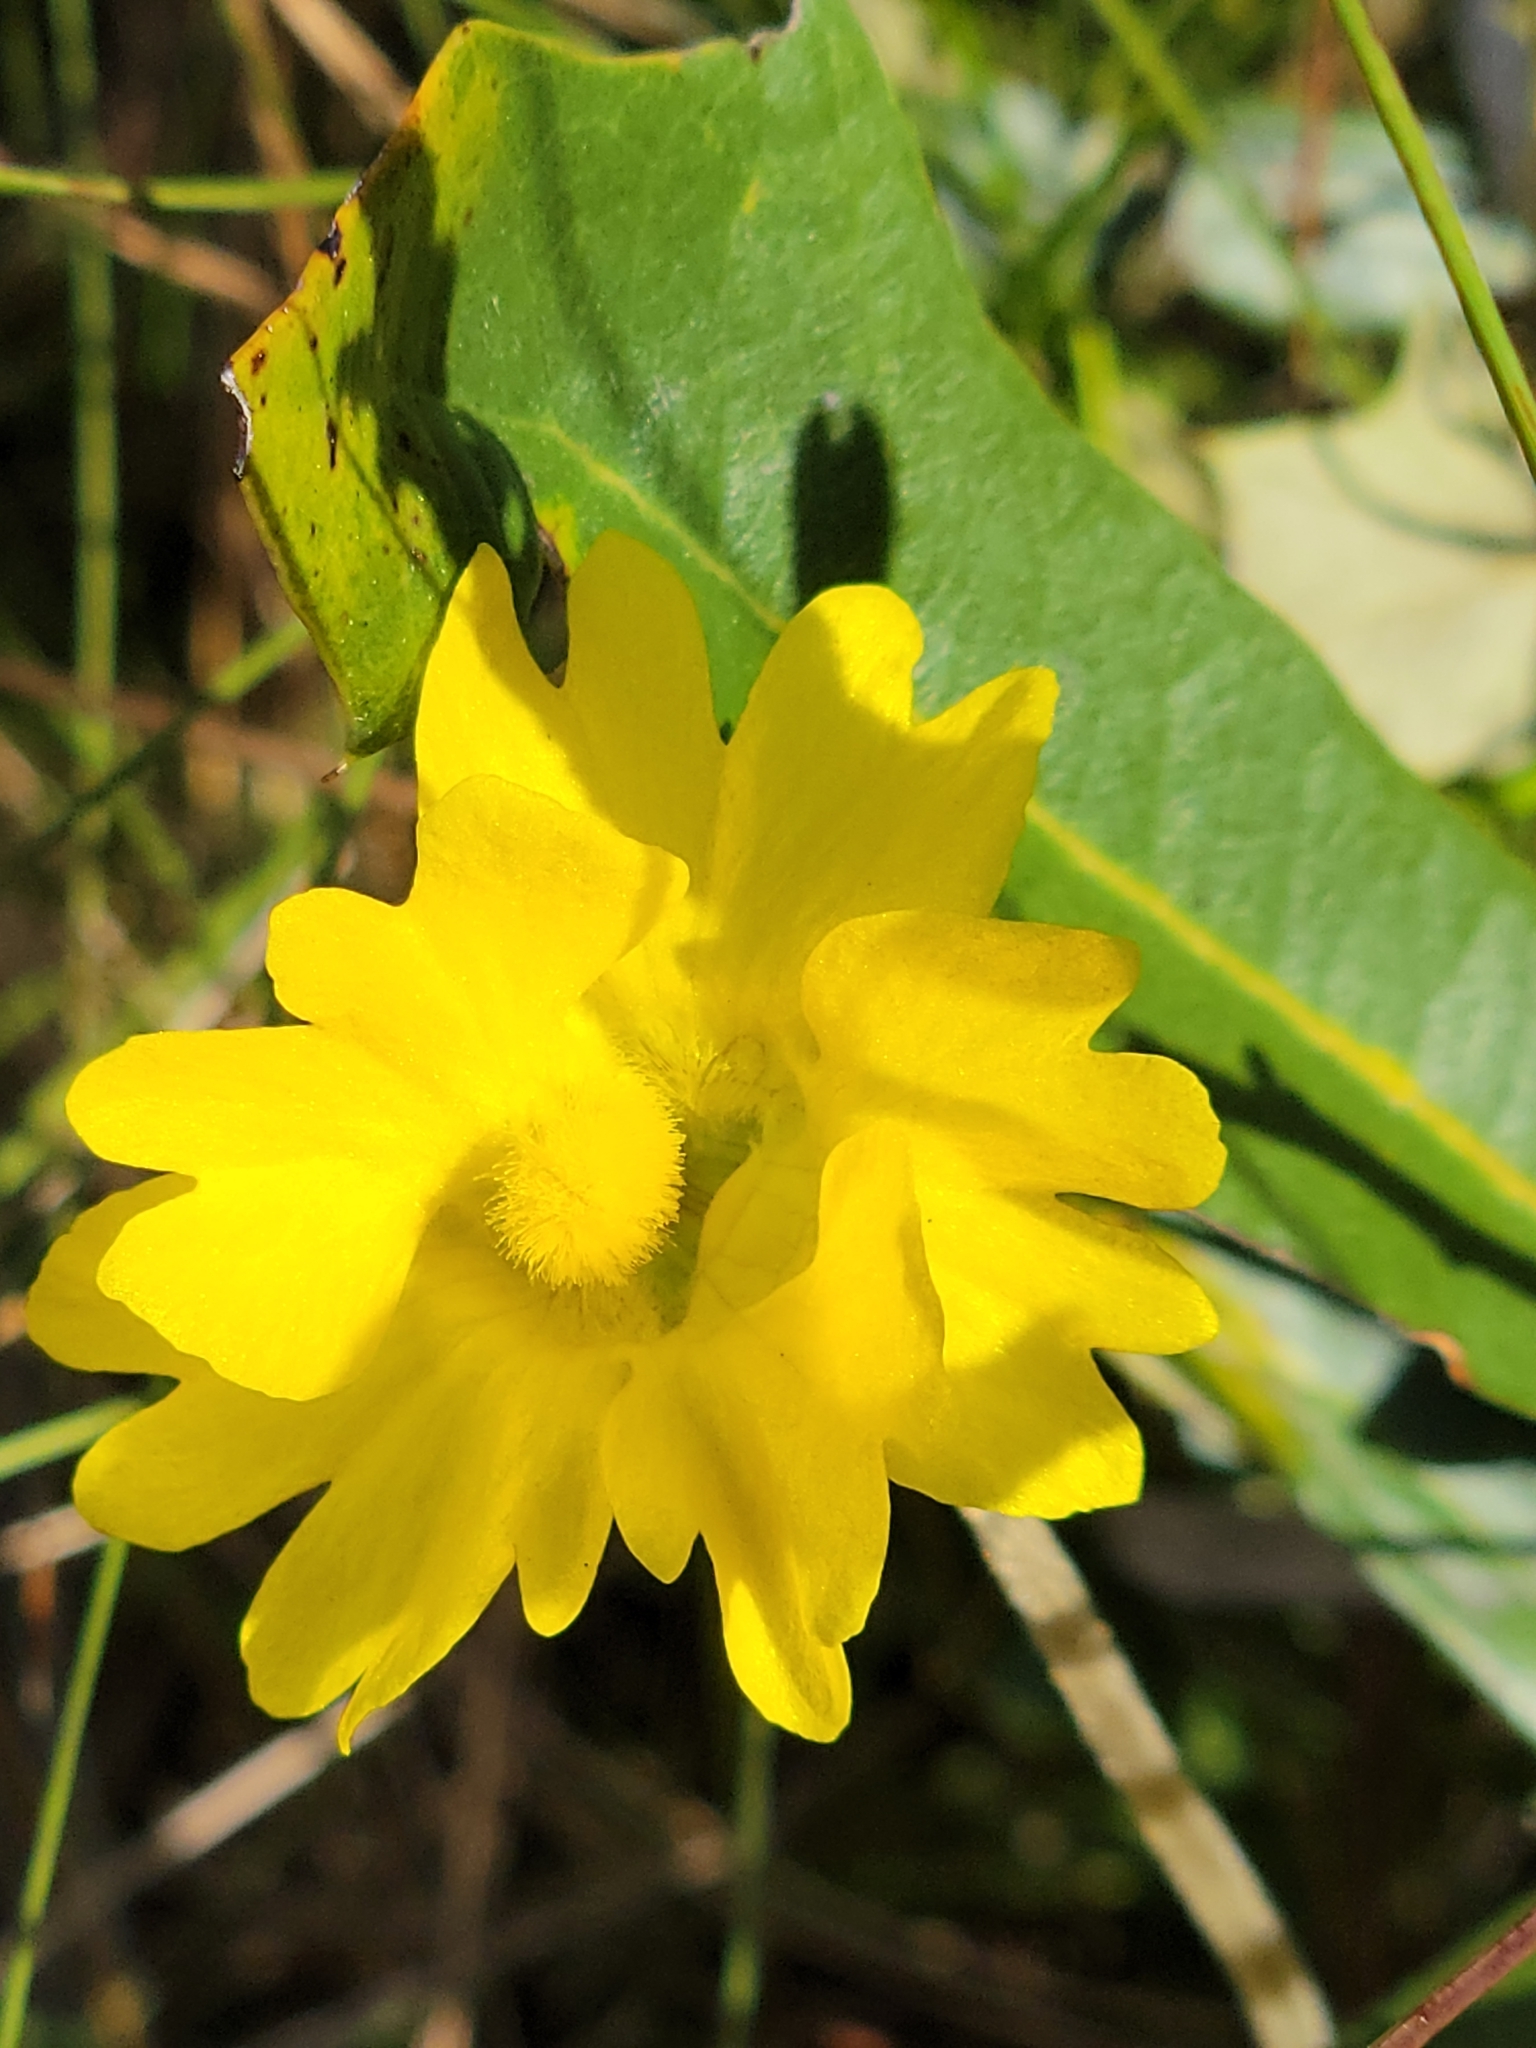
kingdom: Plantae
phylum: Tracheophyta
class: Magnoliopsida
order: Lamiales
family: Lentibulariaceae
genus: Pinguicula
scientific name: Pinguicula lutea
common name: Yellow butterwort
